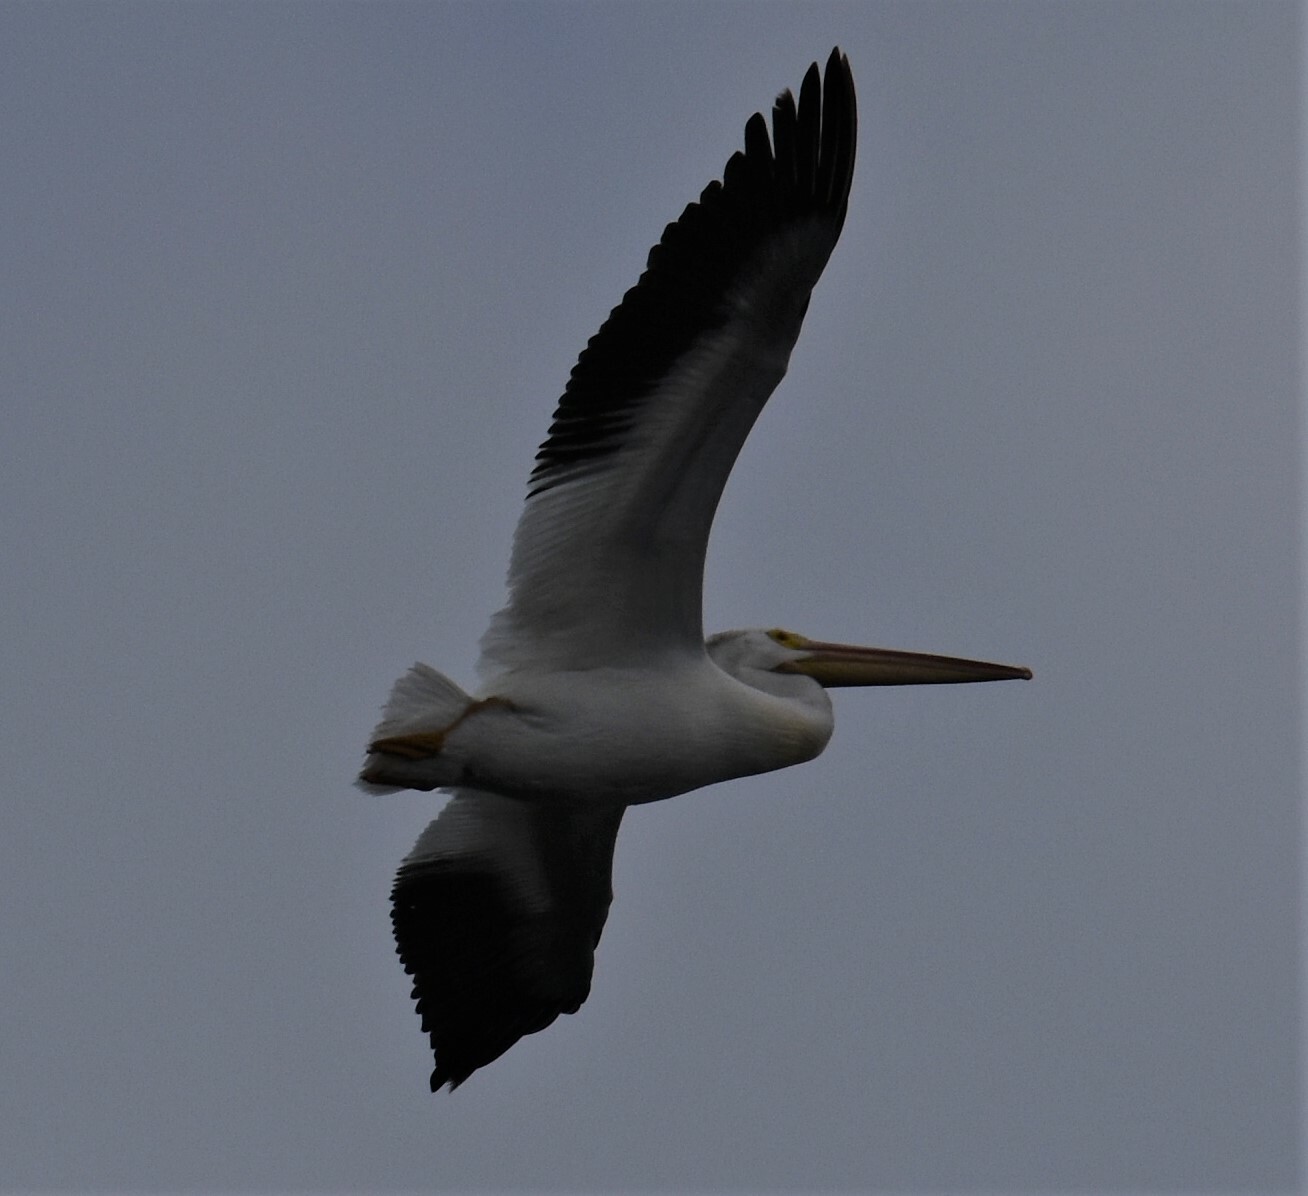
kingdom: Animalia
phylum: Chordata
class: Aves
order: Pelecaniformes
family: Pelecanidae
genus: Pelecanus
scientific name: Pelecanus erythrorhynchos
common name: American white pelican
